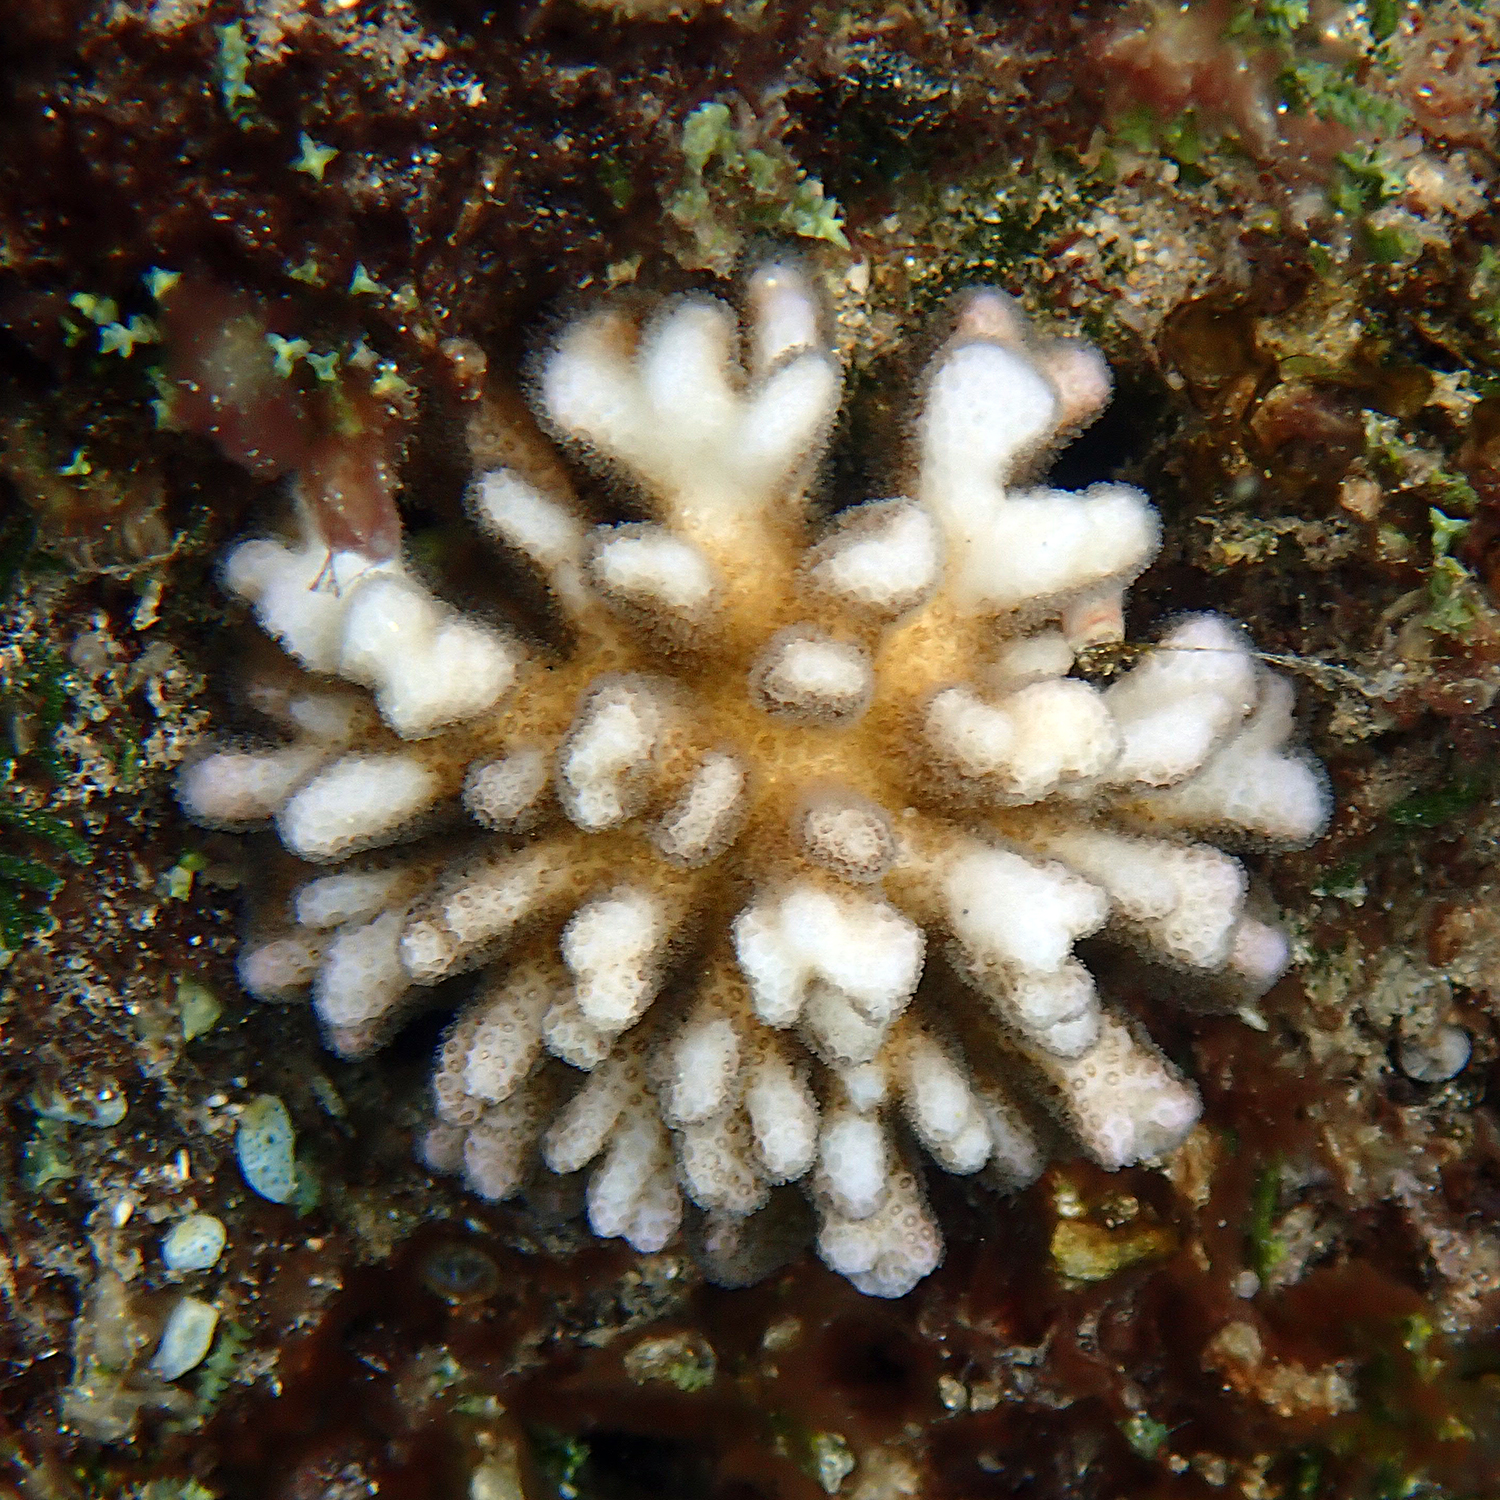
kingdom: Animalia
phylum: Cnidaria
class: Anthozoa
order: Scleractinia
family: Pocilloporidae
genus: Pocillopora
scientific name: Pocillopora damicornis
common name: Cauliflower coral
